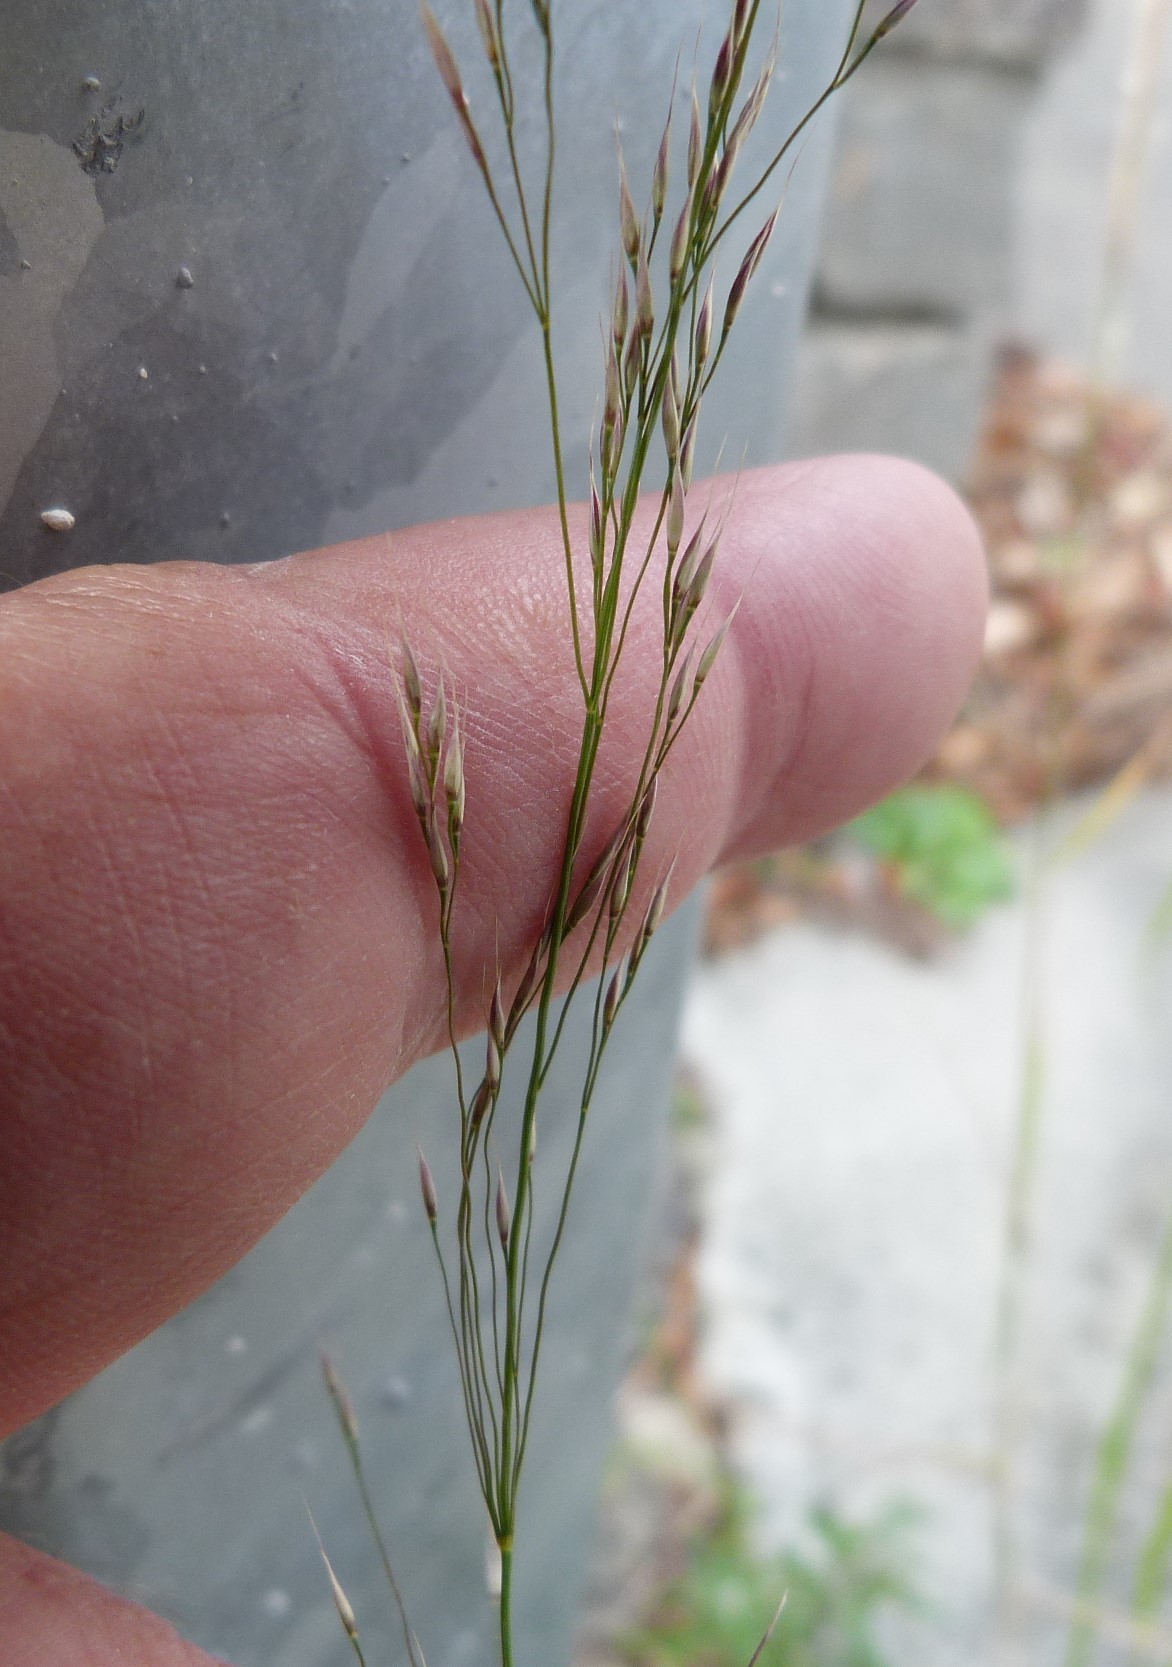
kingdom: Plantae
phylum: Tracheophyta
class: Liliopsida
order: Poales
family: Poaceae
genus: Oloptum
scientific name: Oloptum miliaceum
